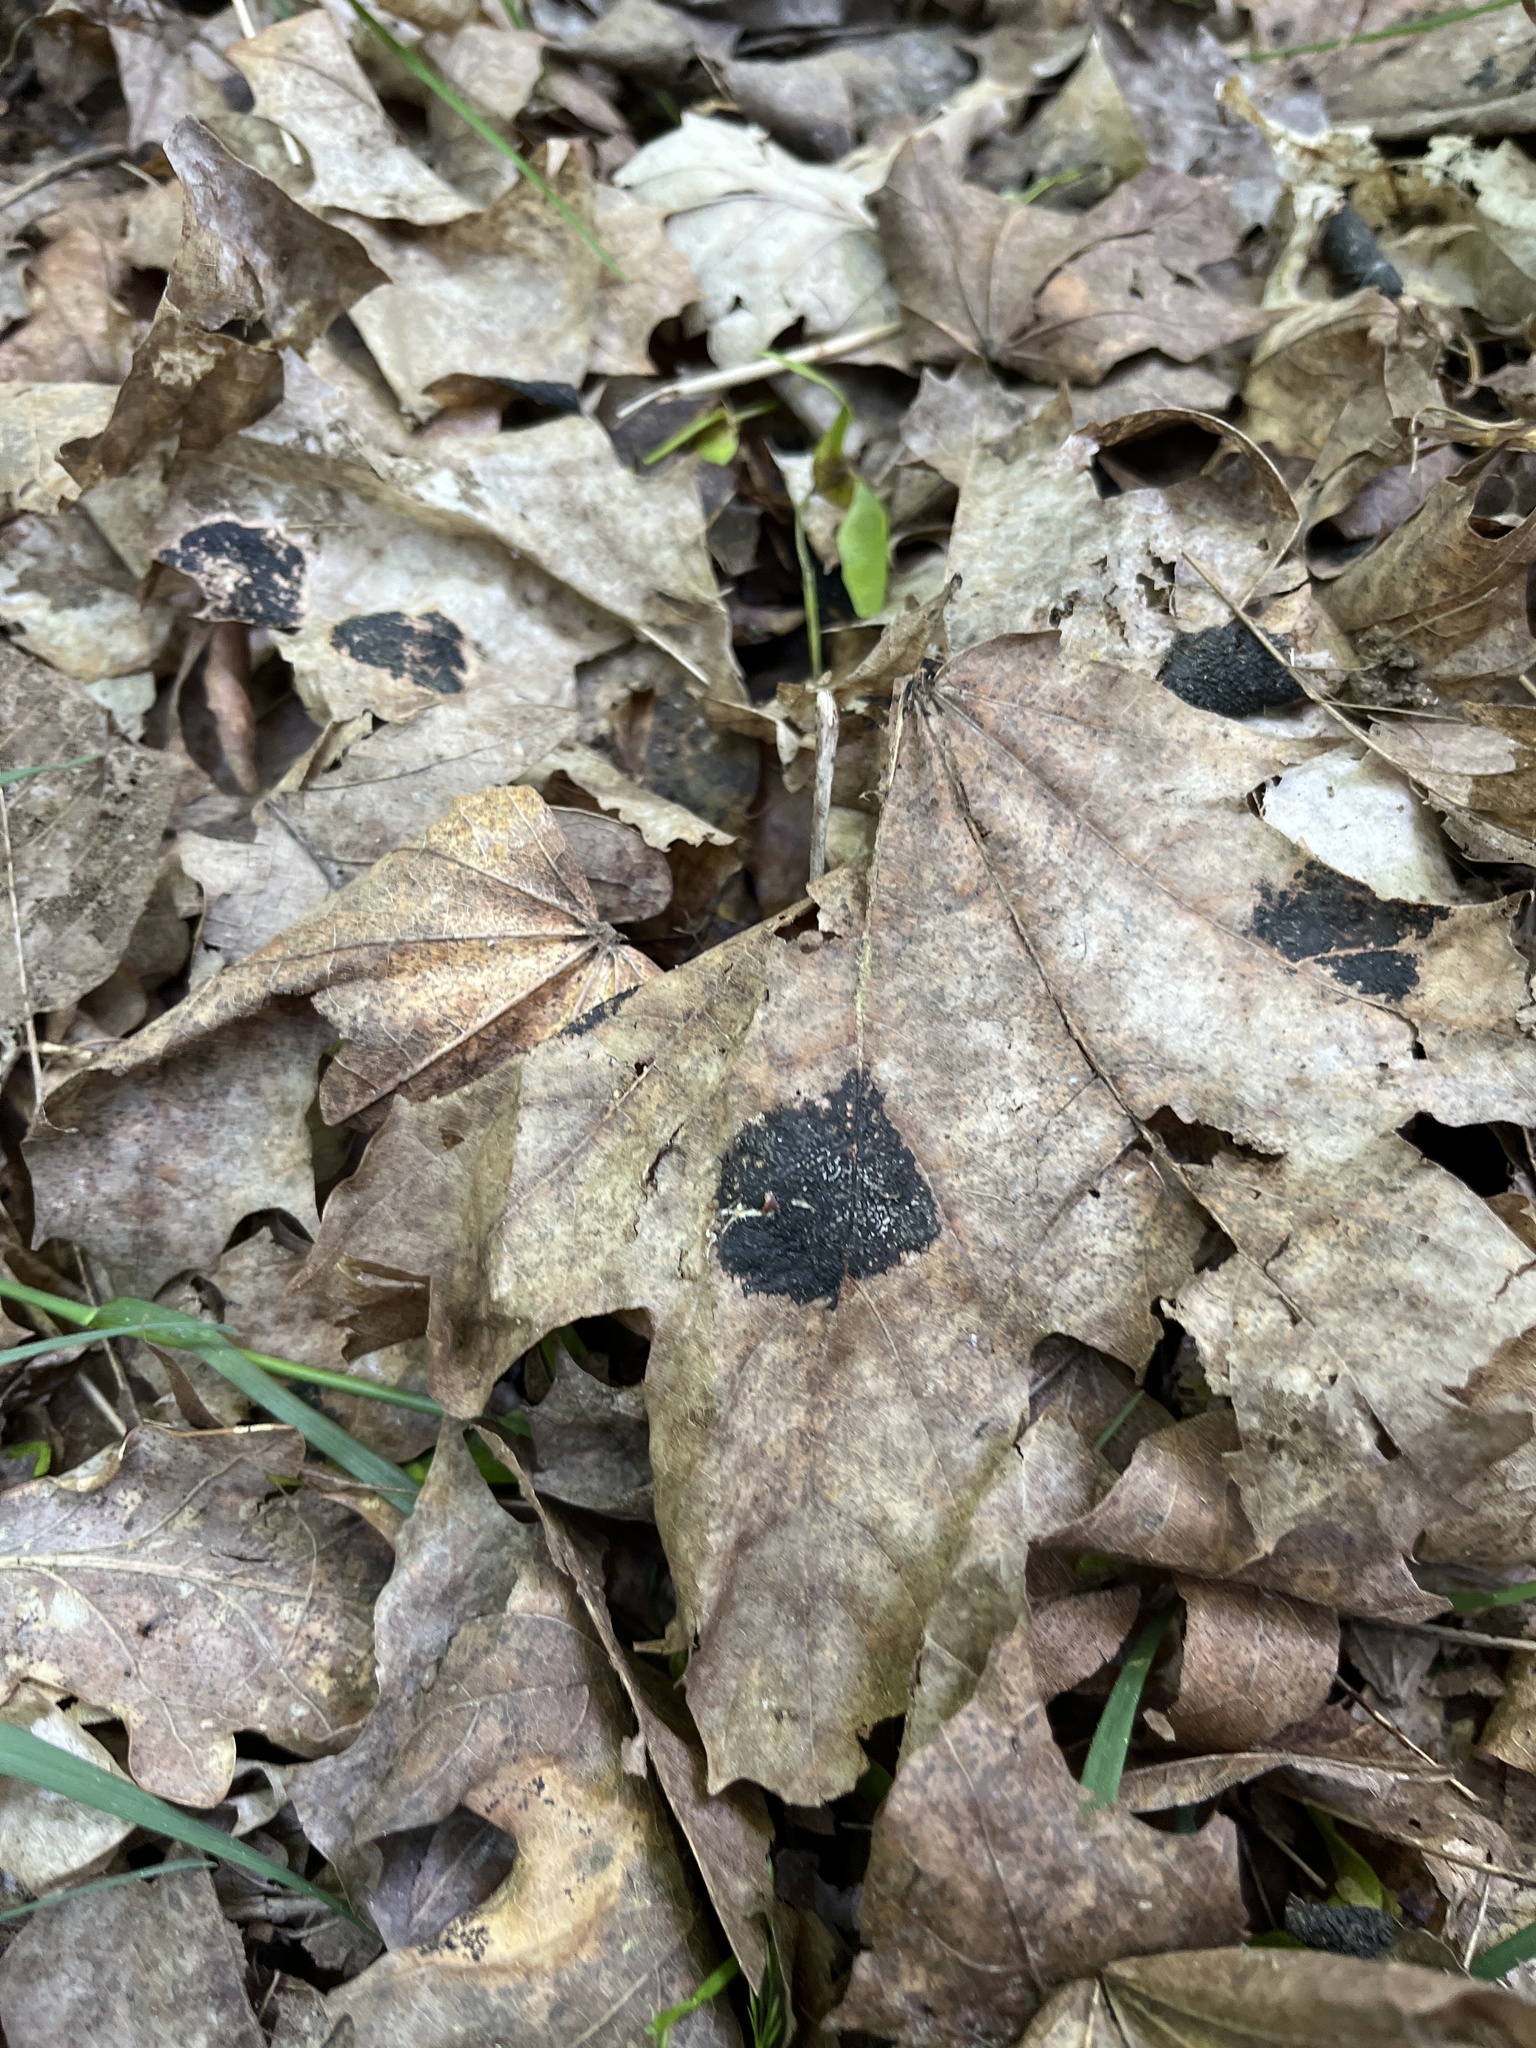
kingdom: Fungi
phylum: Ascomycota
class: Leotiomycetes
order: Rhytismatales
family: Rhytismataceae
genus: Rhytisma
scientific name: Rhytisma acerinum
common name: European tar spot
